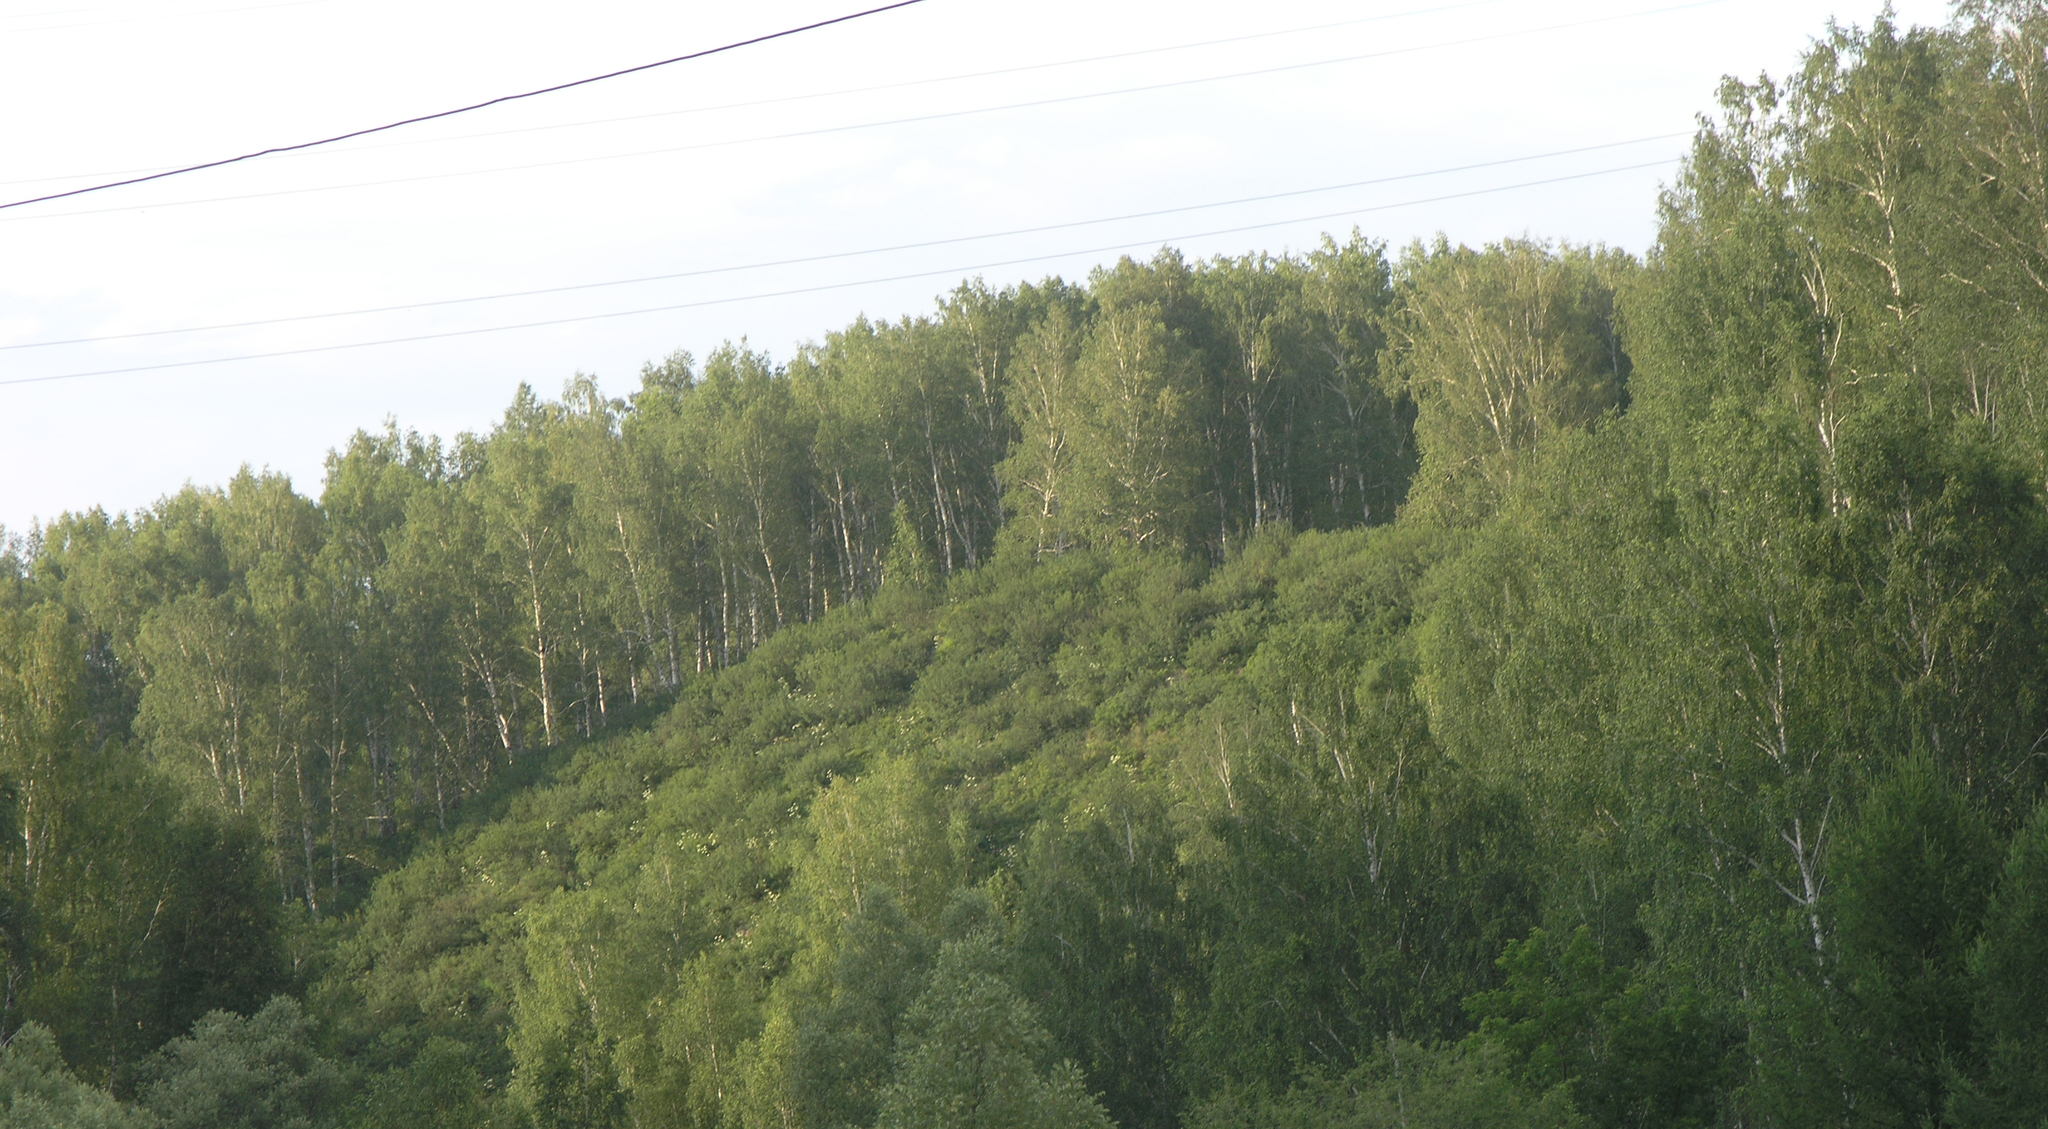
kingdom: Plantae
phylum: Tracheophyta
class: Magnoliopsida
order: Fagales
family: Betulaceae
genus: Betula
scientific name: Betula pendula
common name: Silver birch
